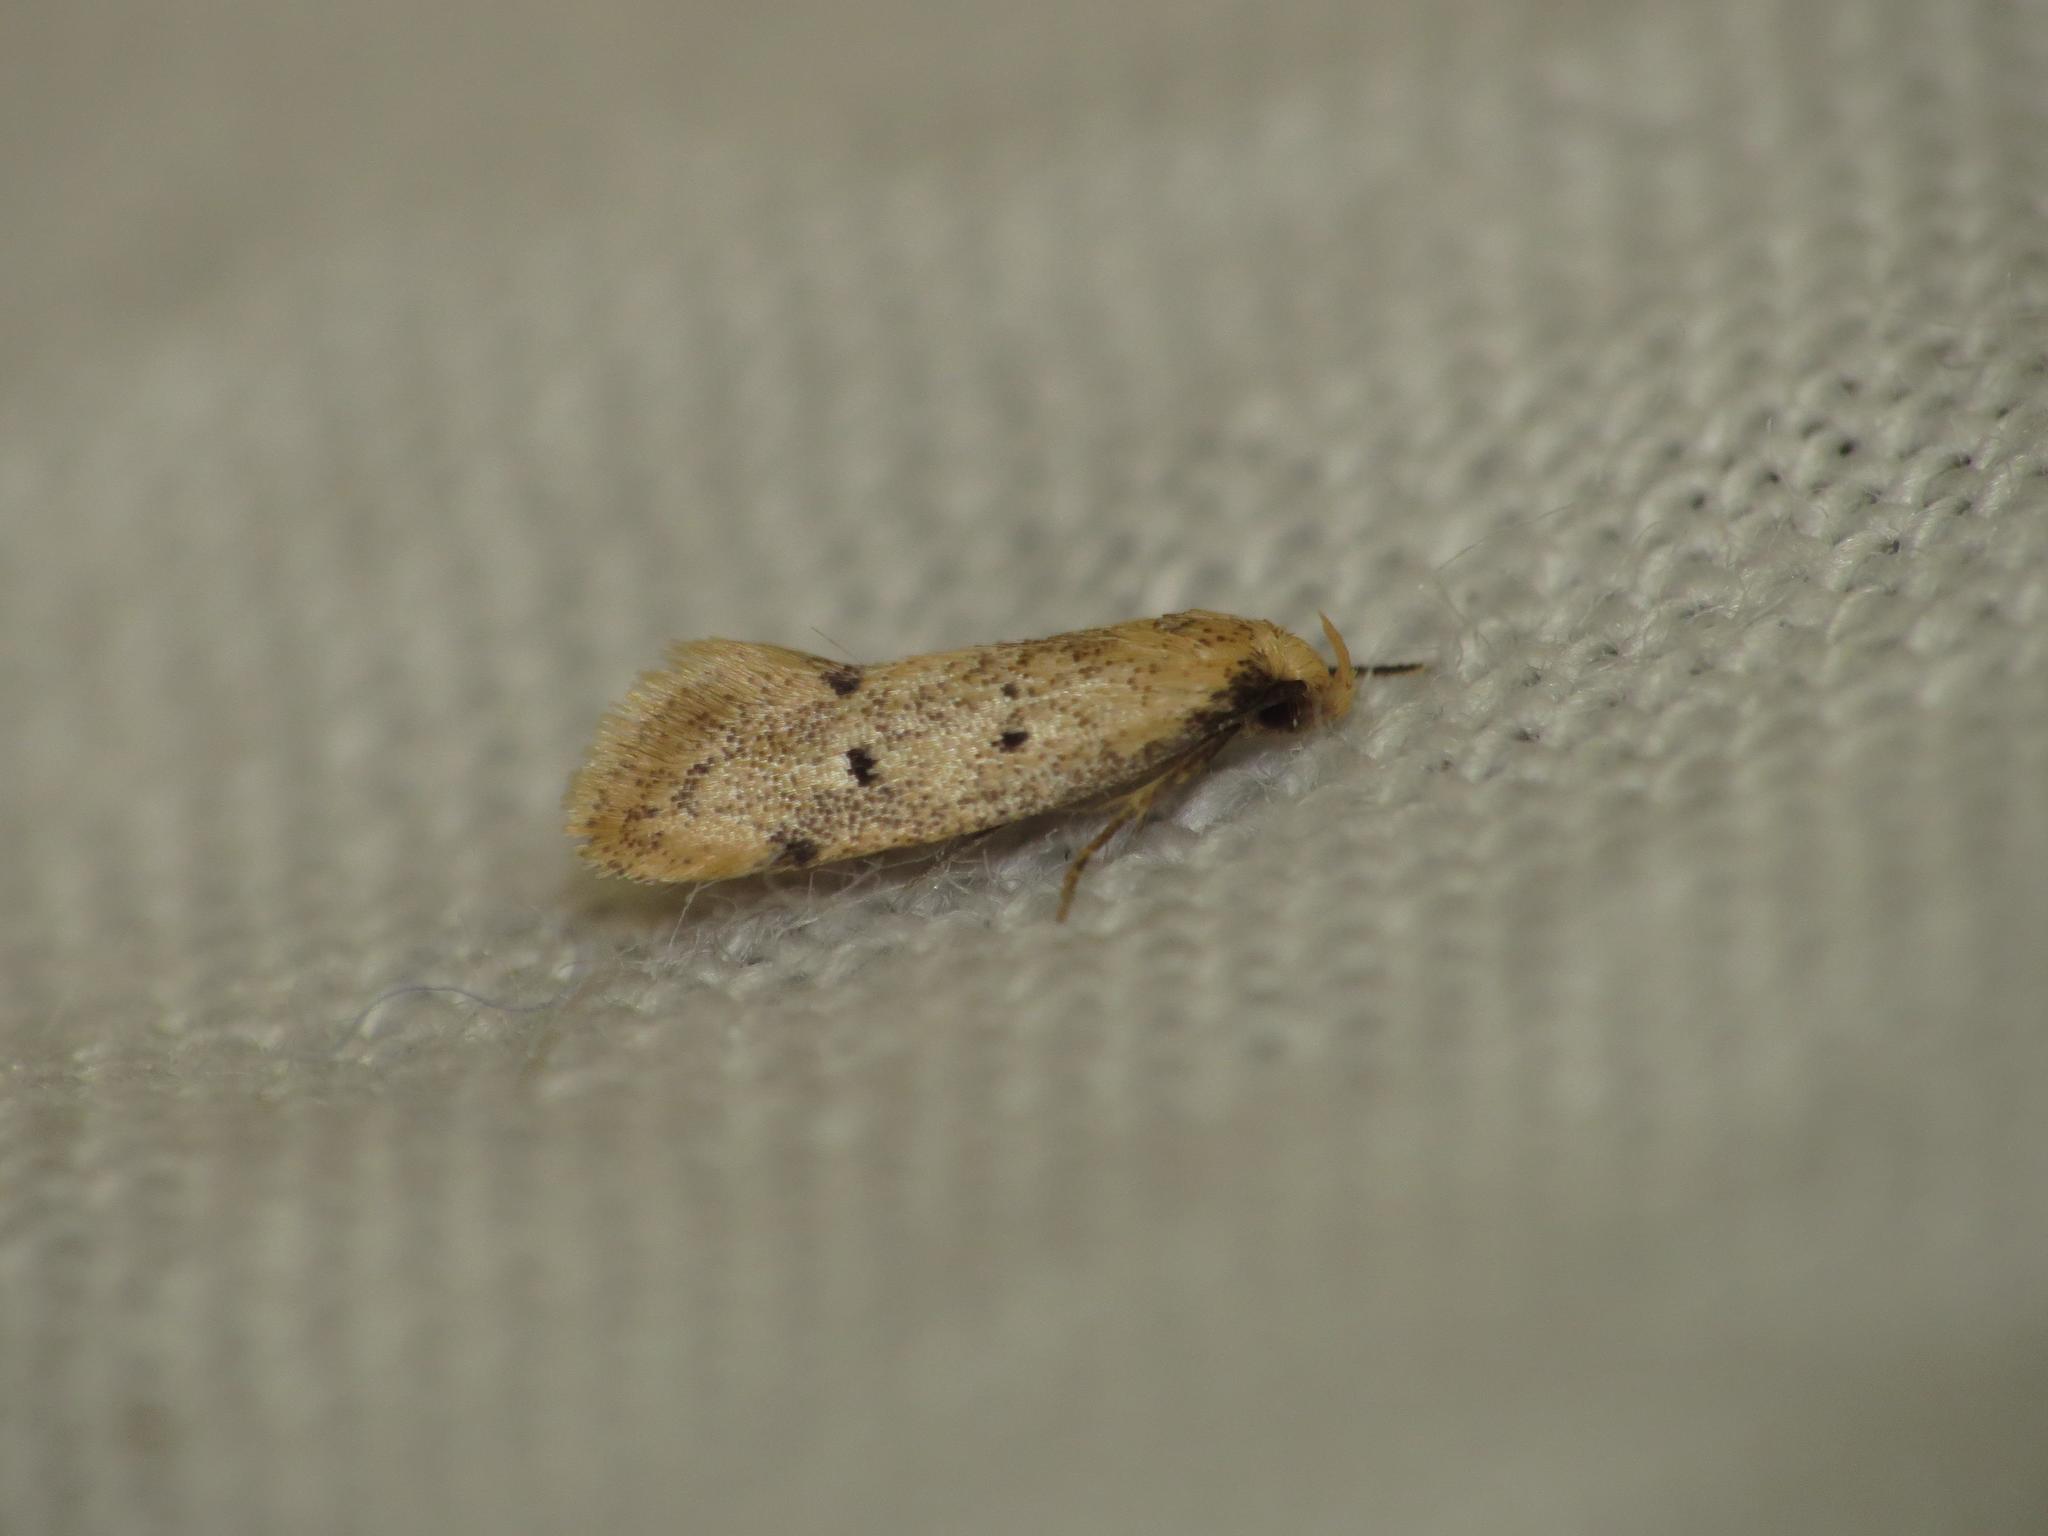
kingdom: Animalia
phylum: Arthropoda
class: Insecta
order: Lepidoptera
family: Oecophoridae
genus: Mimobrachyoma
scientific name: Mimobrachyoma meselectra
